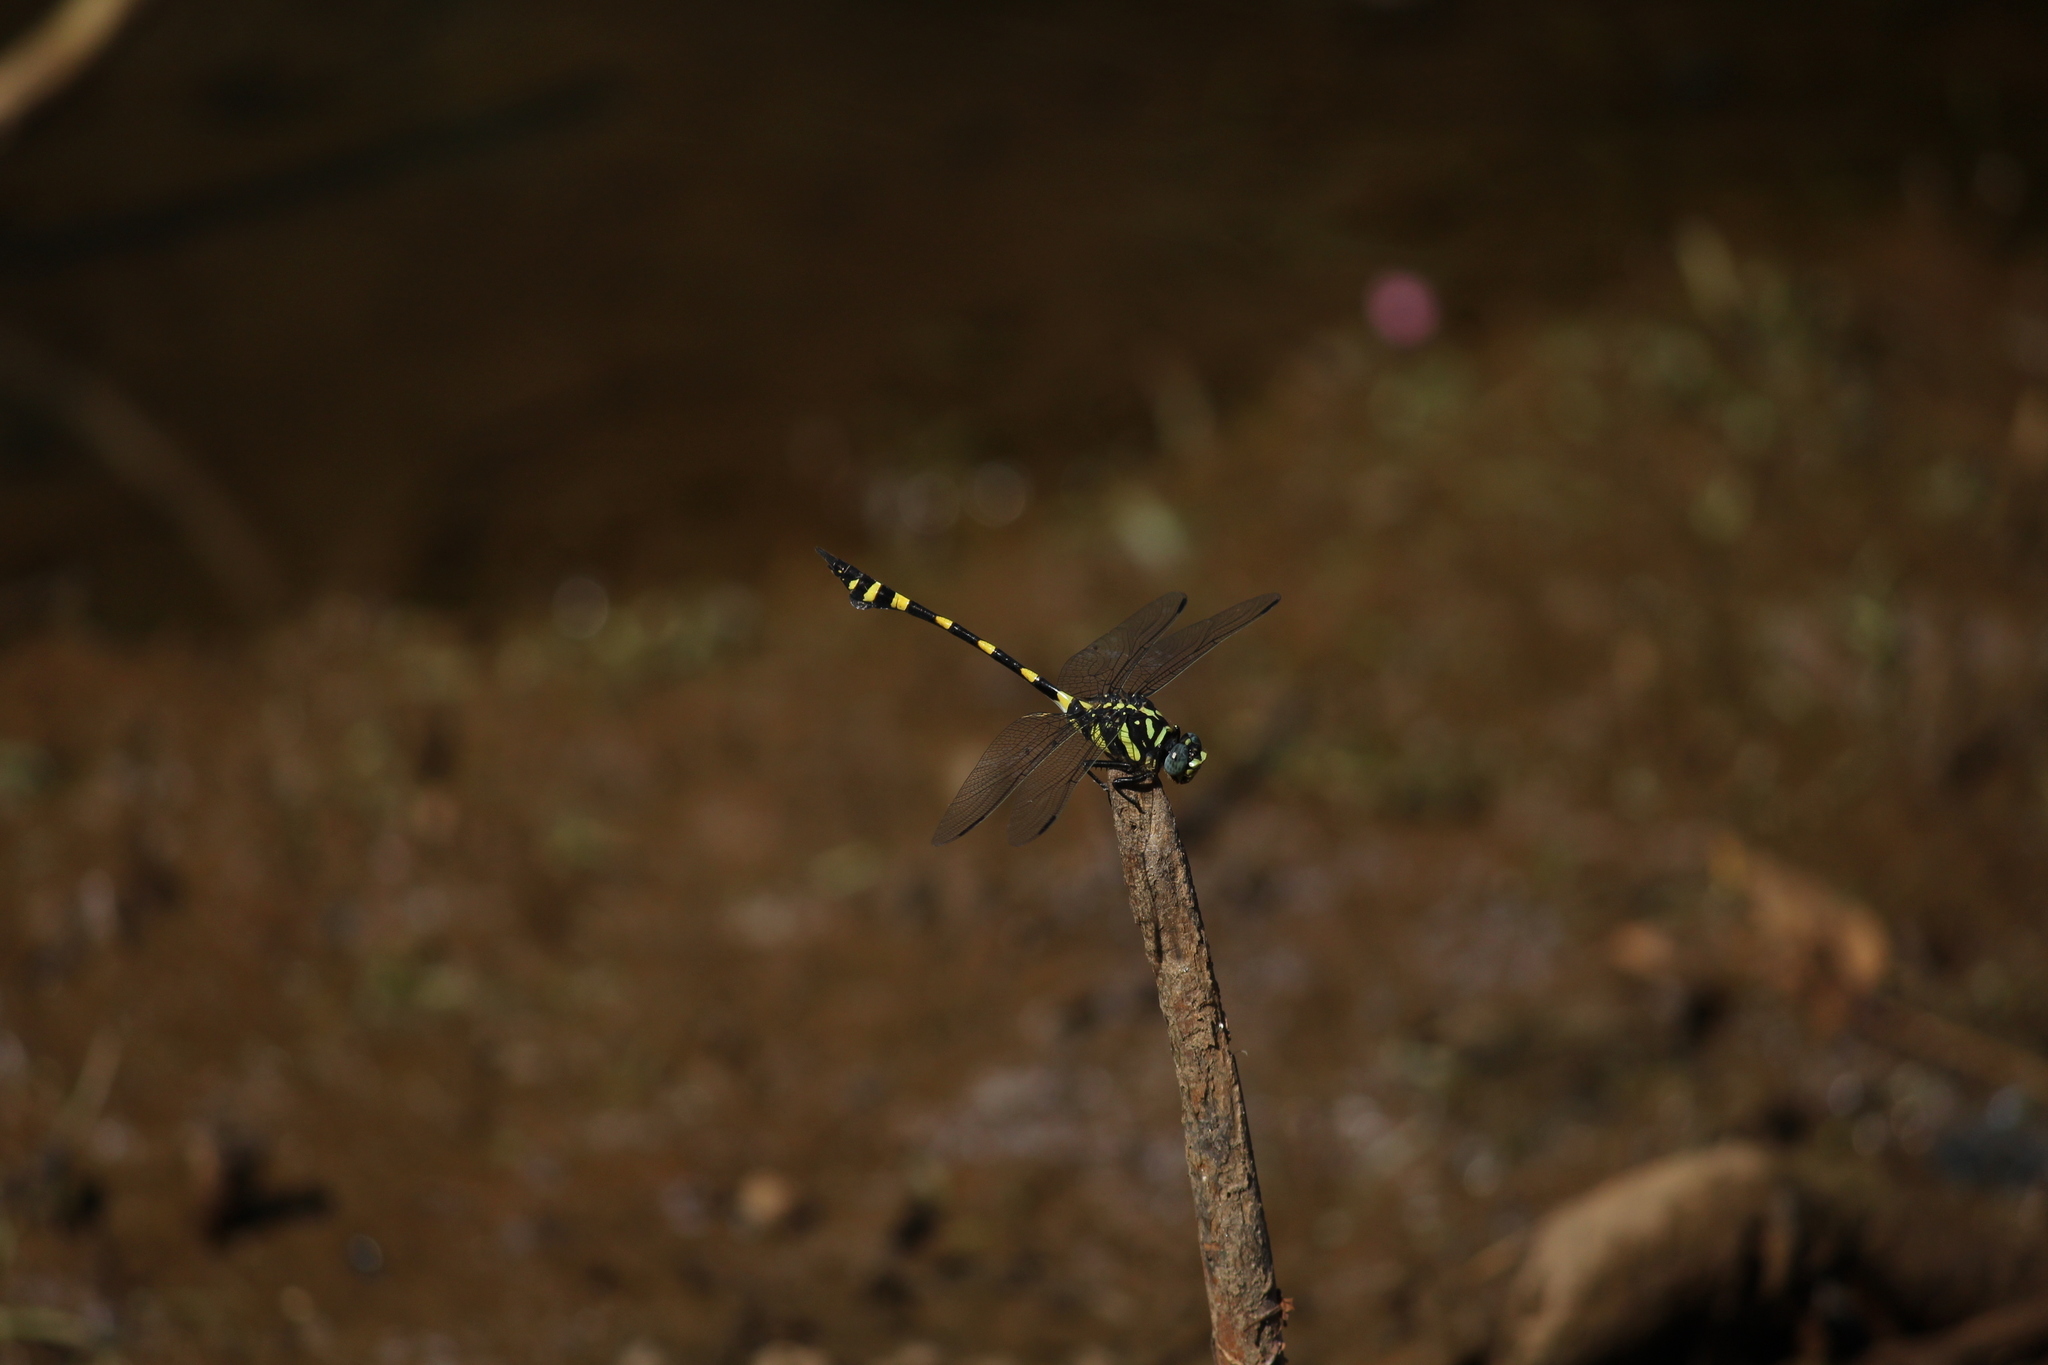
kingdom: Animalia
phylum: Arthropoda
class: Insecta
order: Odonata
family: Gomphidae
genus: Ictinogomphus
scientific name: Ictinogomphus rapax
